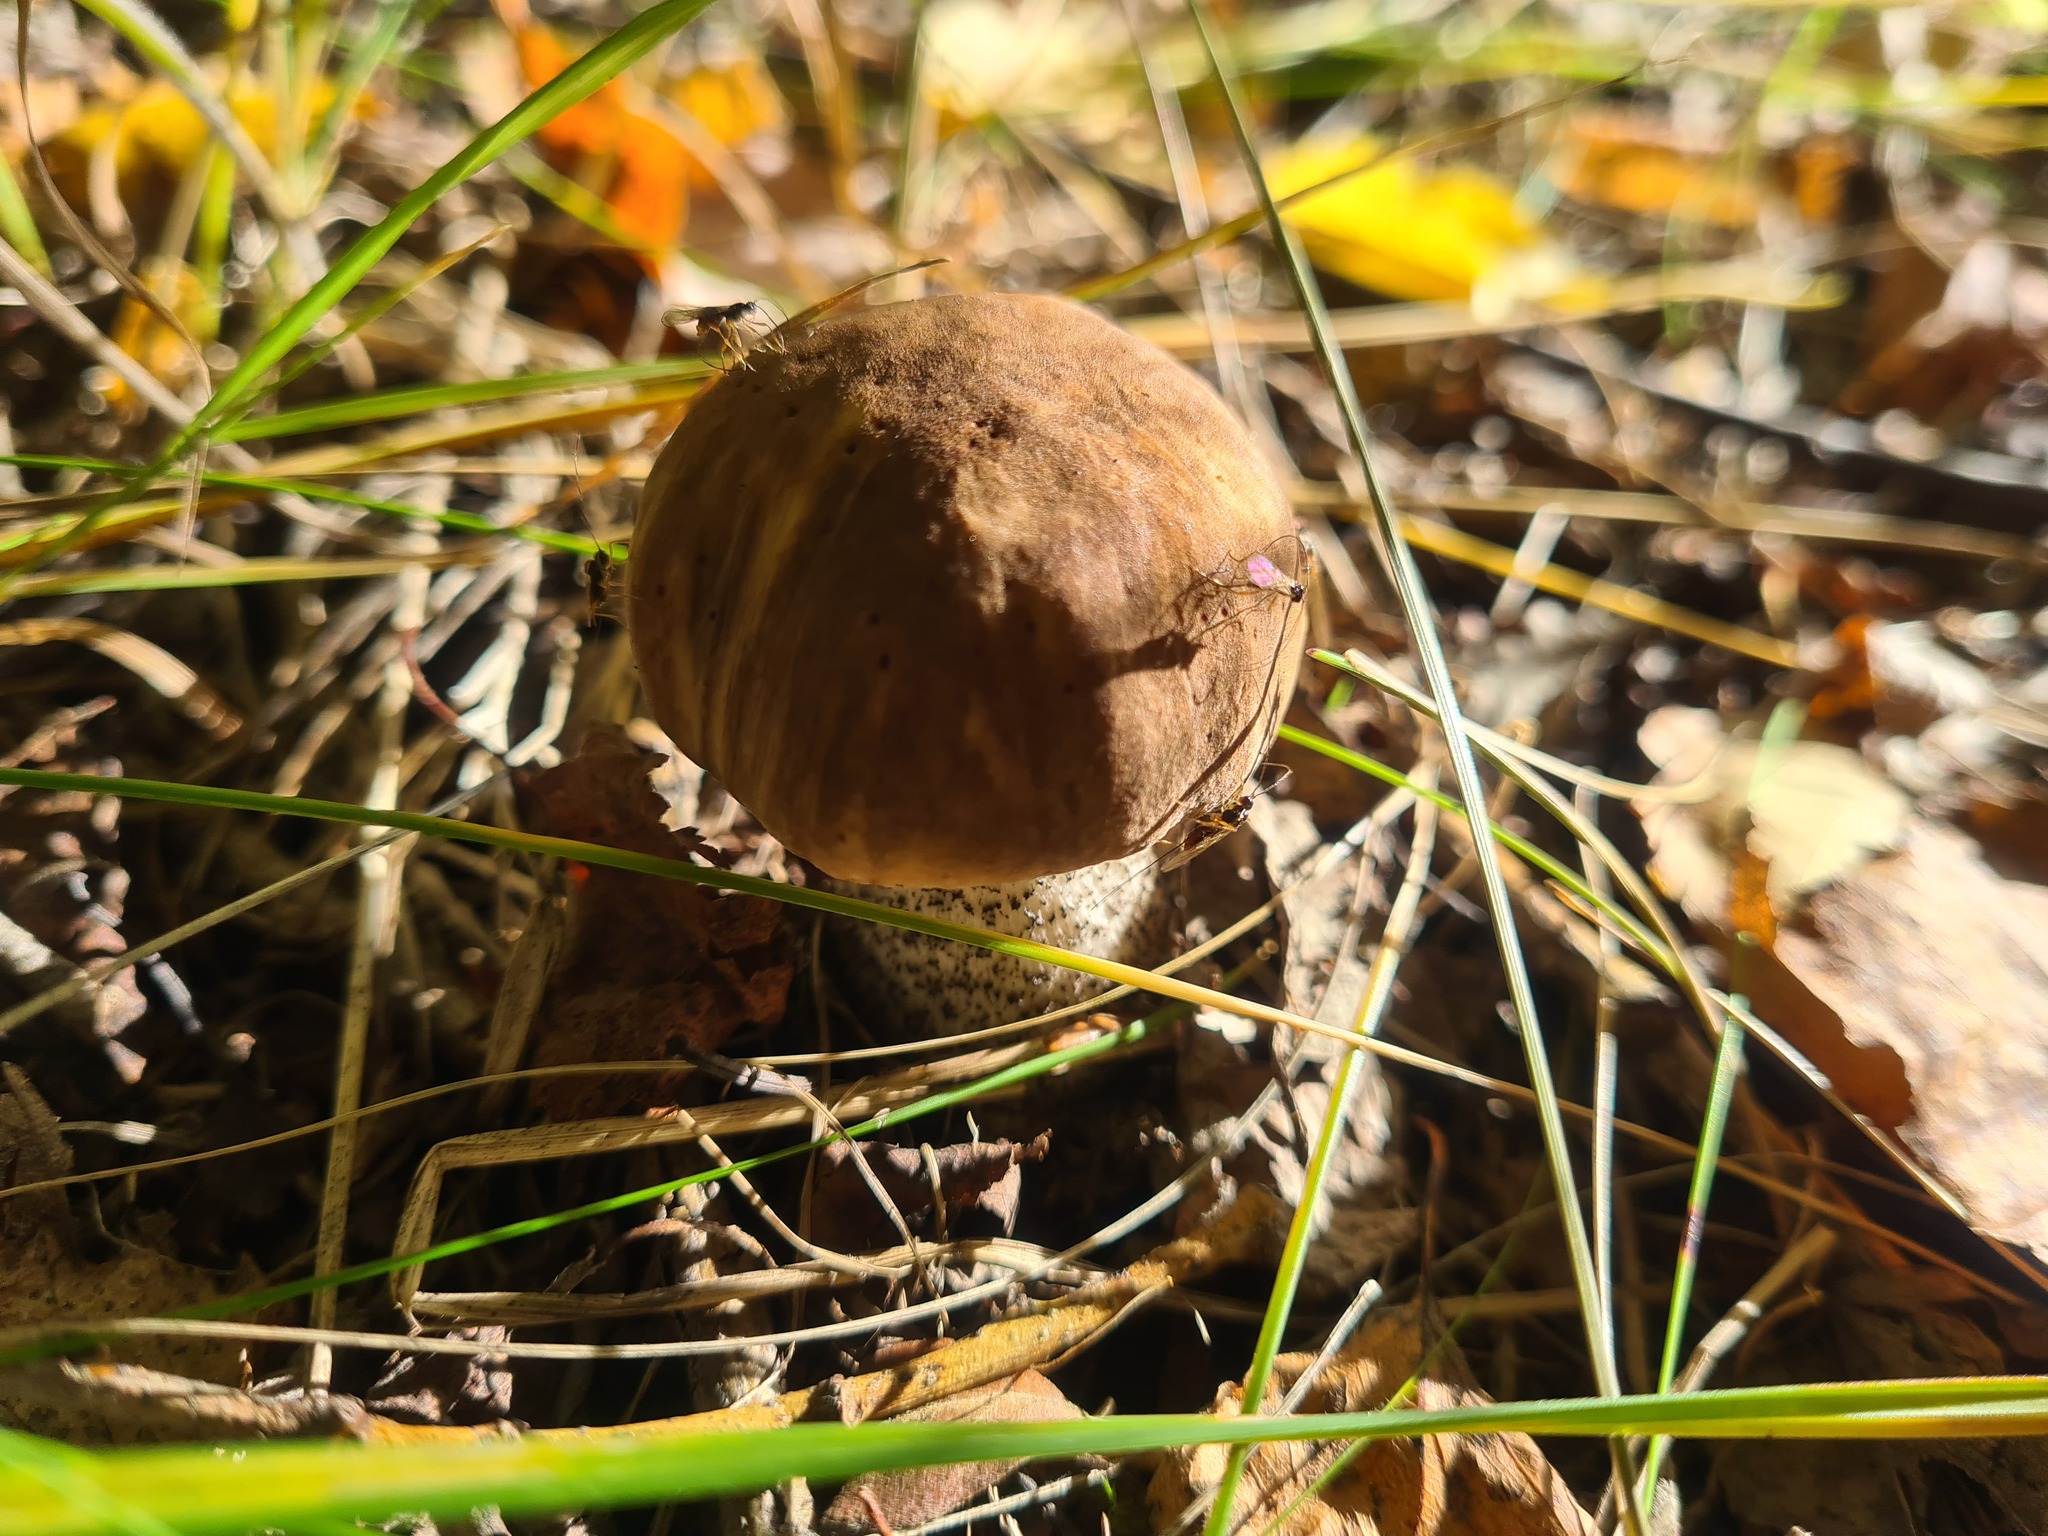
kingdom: Fungi
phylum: Basidiomycota
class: Agaricomycetes
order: Boletales
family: Boletaceae
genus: Leccinum
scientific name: Leccinum scabrum
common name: Blushing bolete
